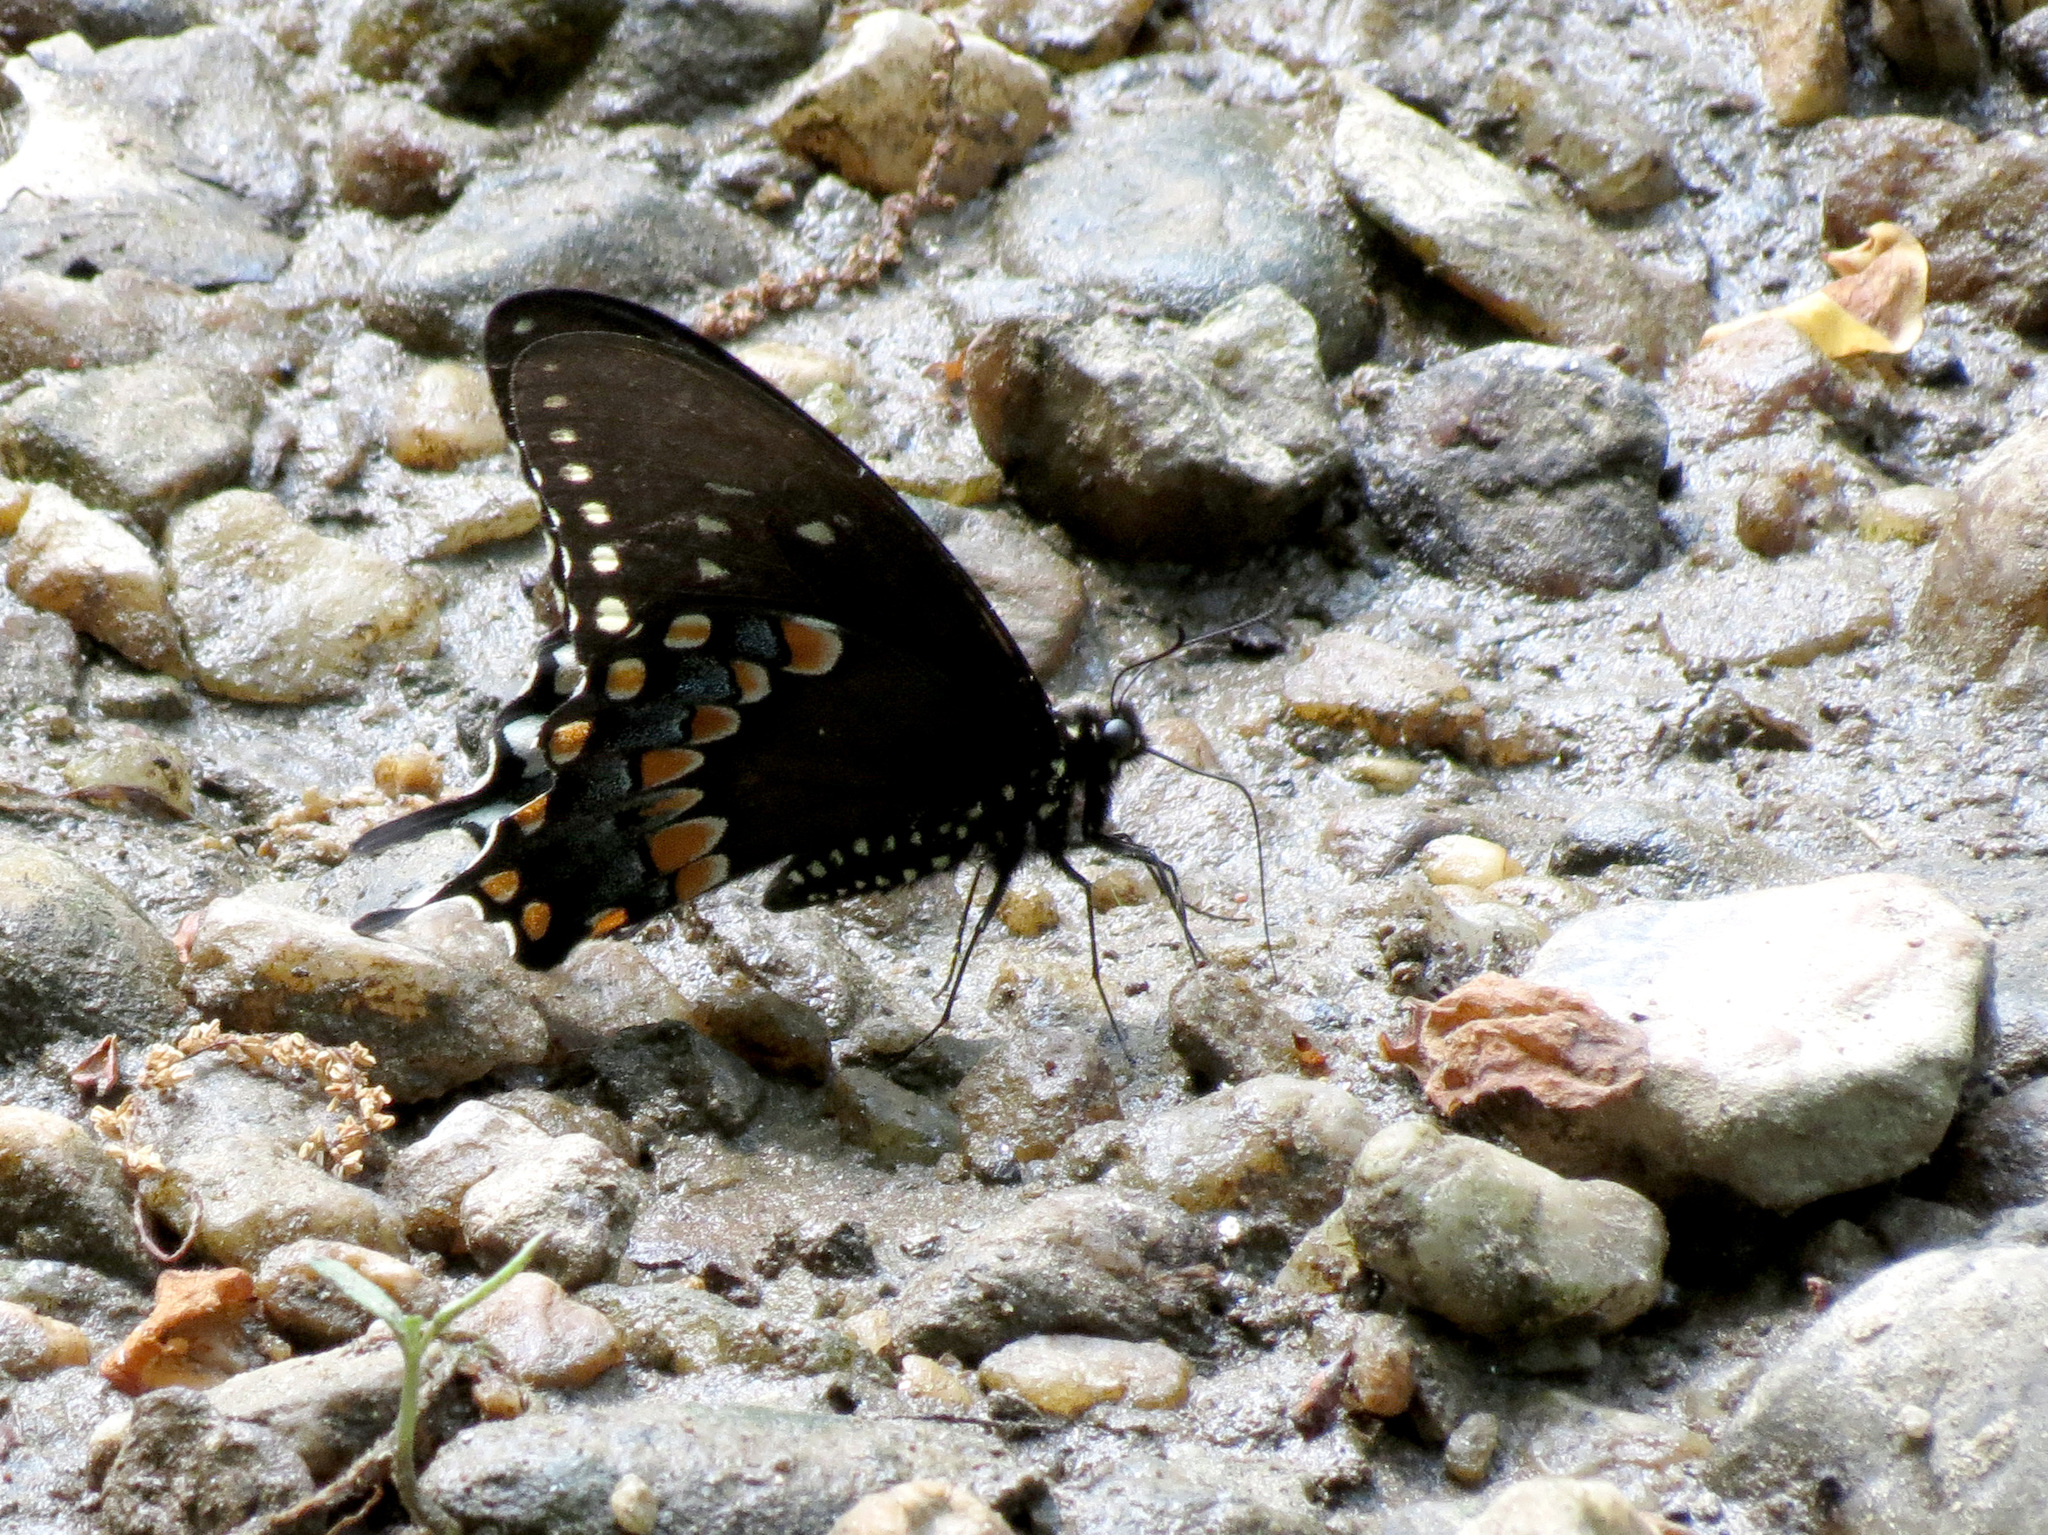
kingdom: Animalia
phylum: Arthropoda
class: Insecta
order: Lepidoptera
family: Papilionidae
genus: Papilio
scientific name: Papilio troilus
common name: Spicebush swallowtail
